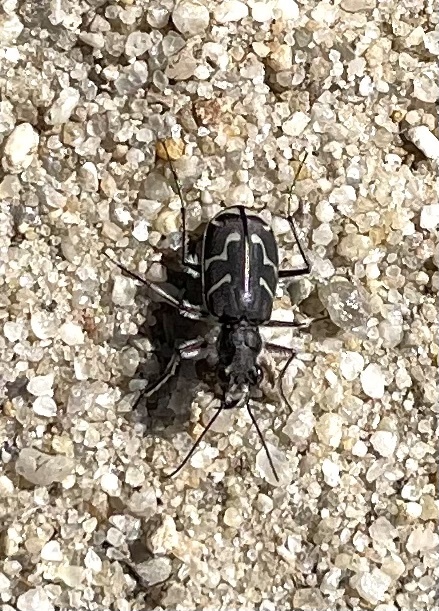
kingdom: Animalia
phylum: Arthropoda
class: Insecta
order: Coleoptera
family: Carabidae
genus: Cicindela
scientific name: Cicindela tranquebarica
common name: Oblique-lined tiger beetle
